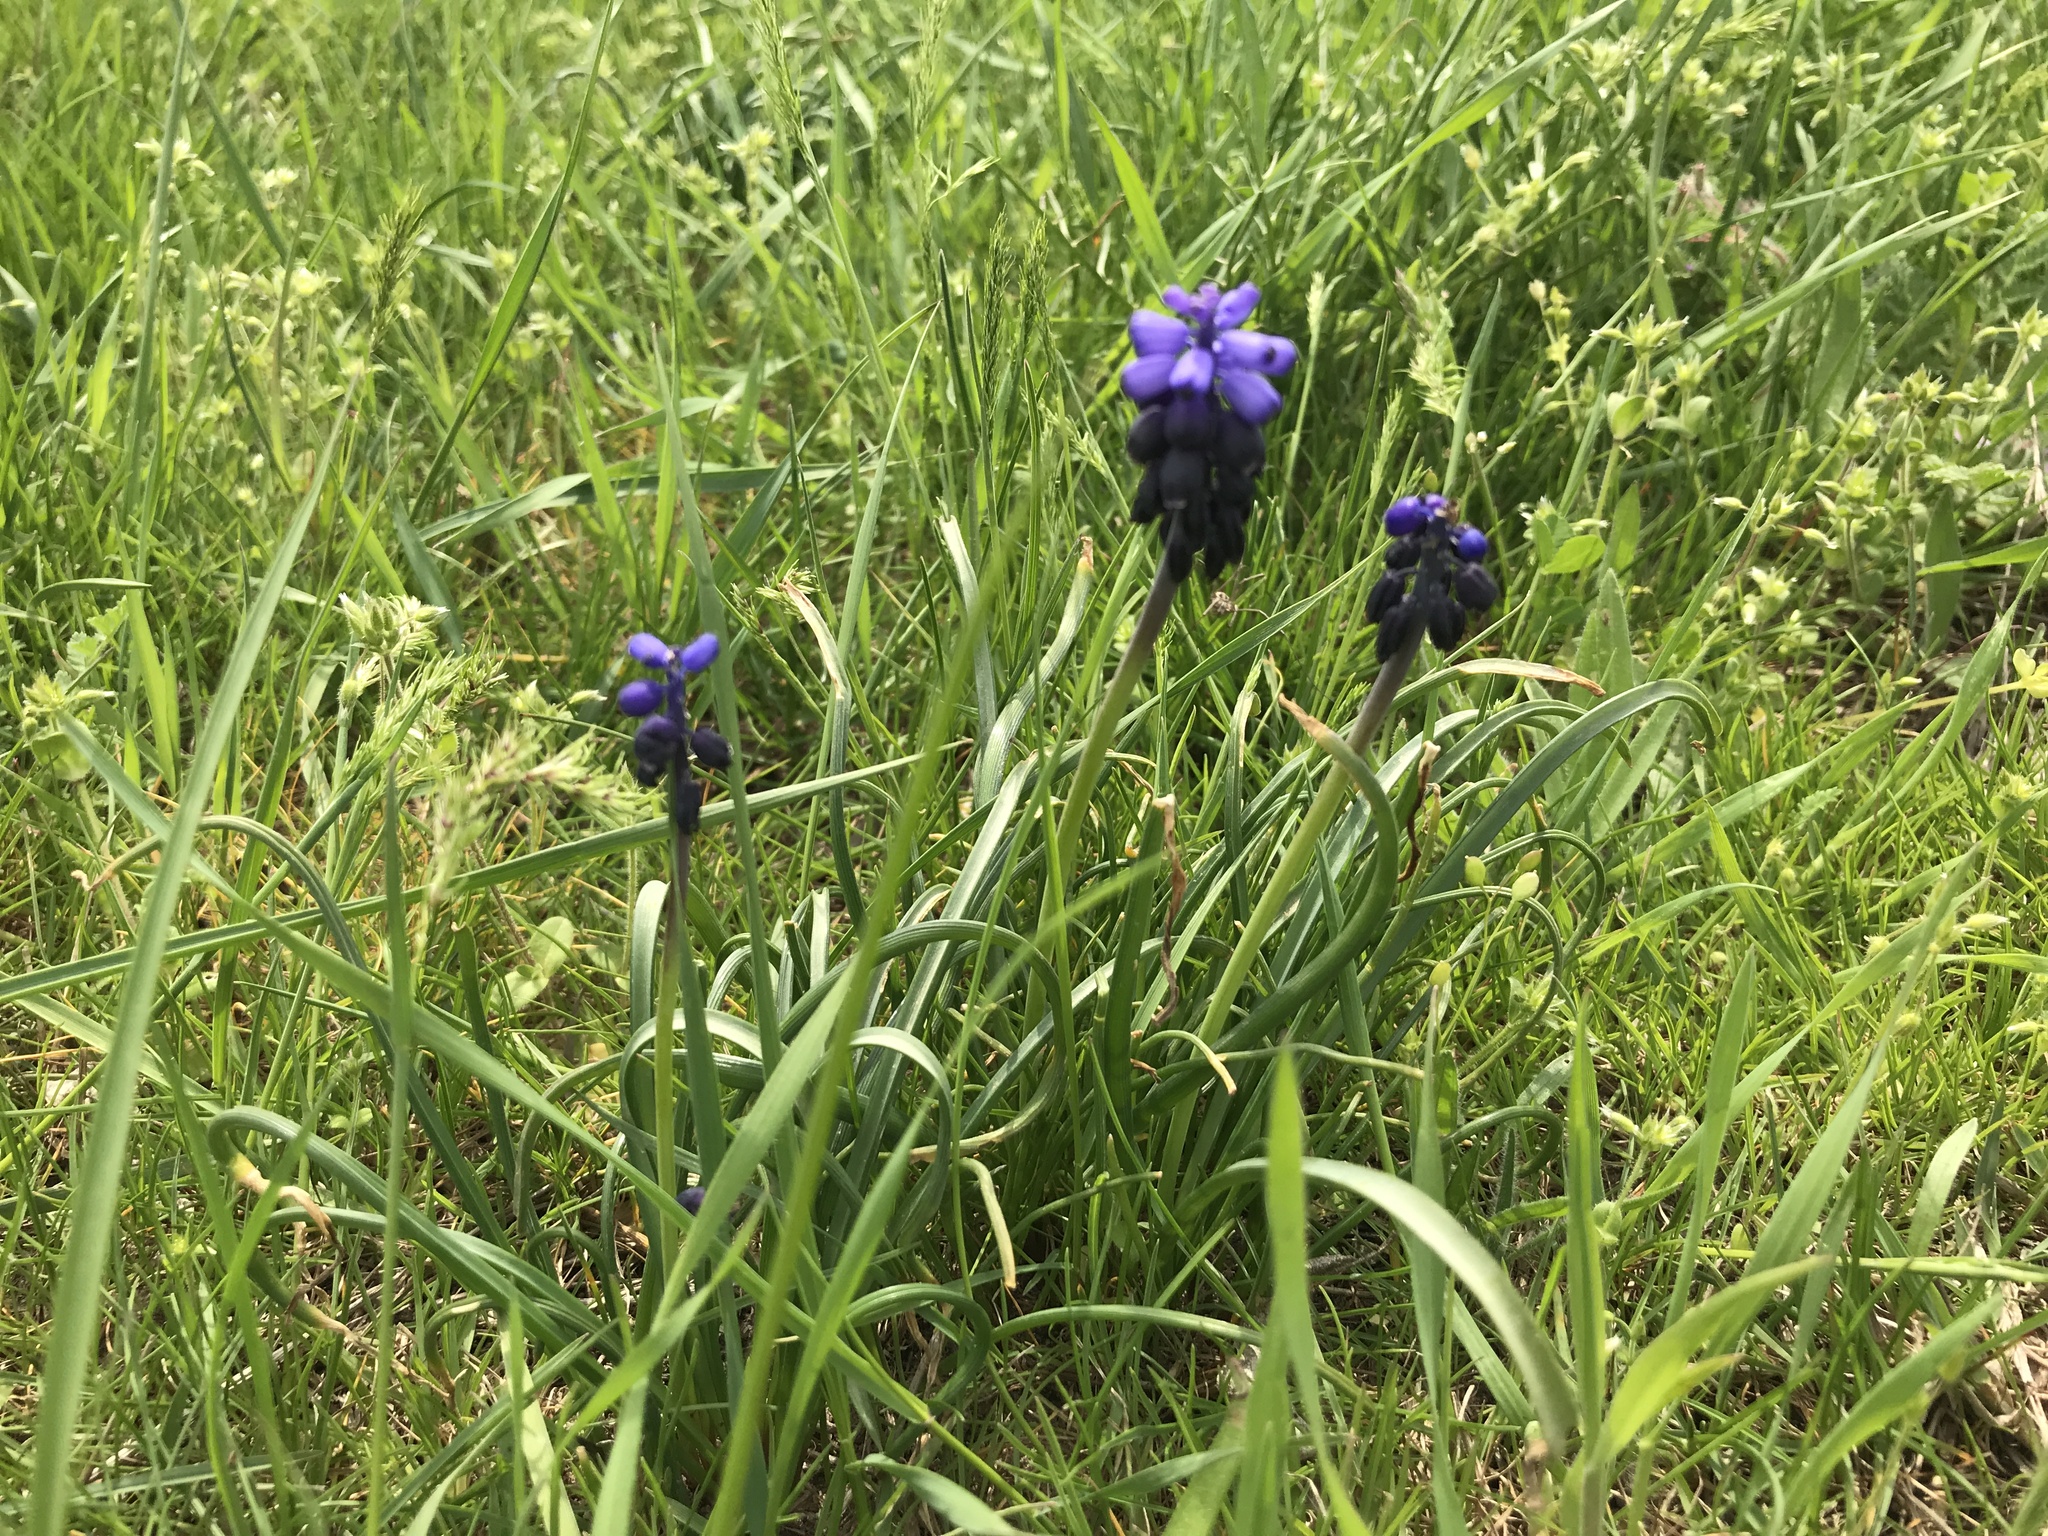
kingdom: Plantae
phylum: Tracheophyta
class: Liliopsida
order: Asparagales
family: Asparagaceae
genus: Muscari
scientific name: Muscari neglectum
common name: Grape-hyacinth
